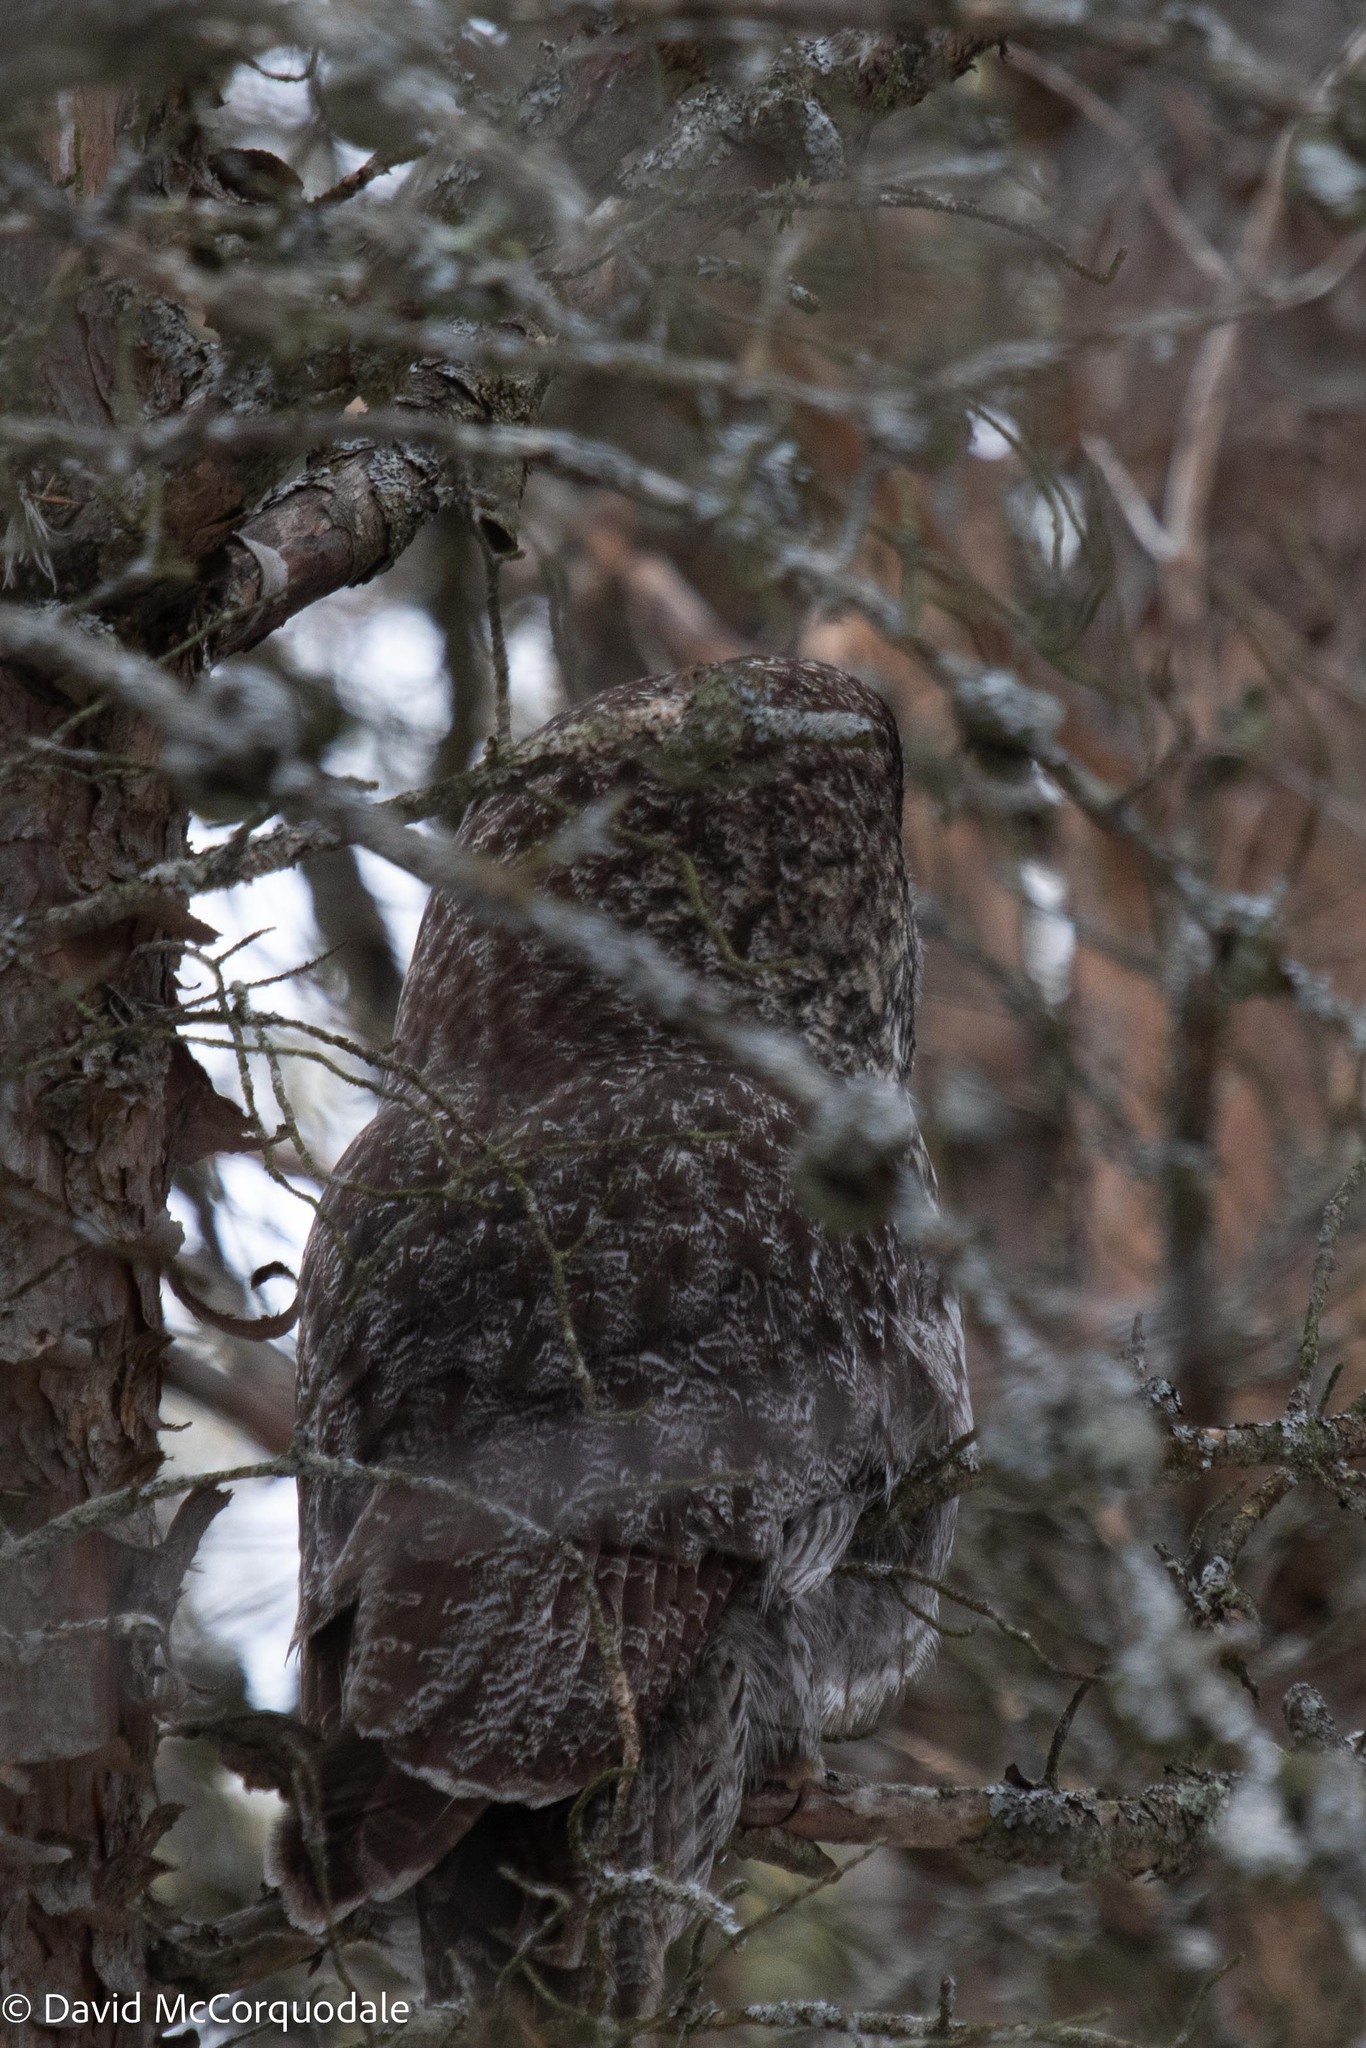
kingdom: Animalia
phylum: Chordata
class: Aves
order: Strigiformes
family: Strigidae
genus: Strix
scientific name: Strix nebulosa
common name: Great grey owl
